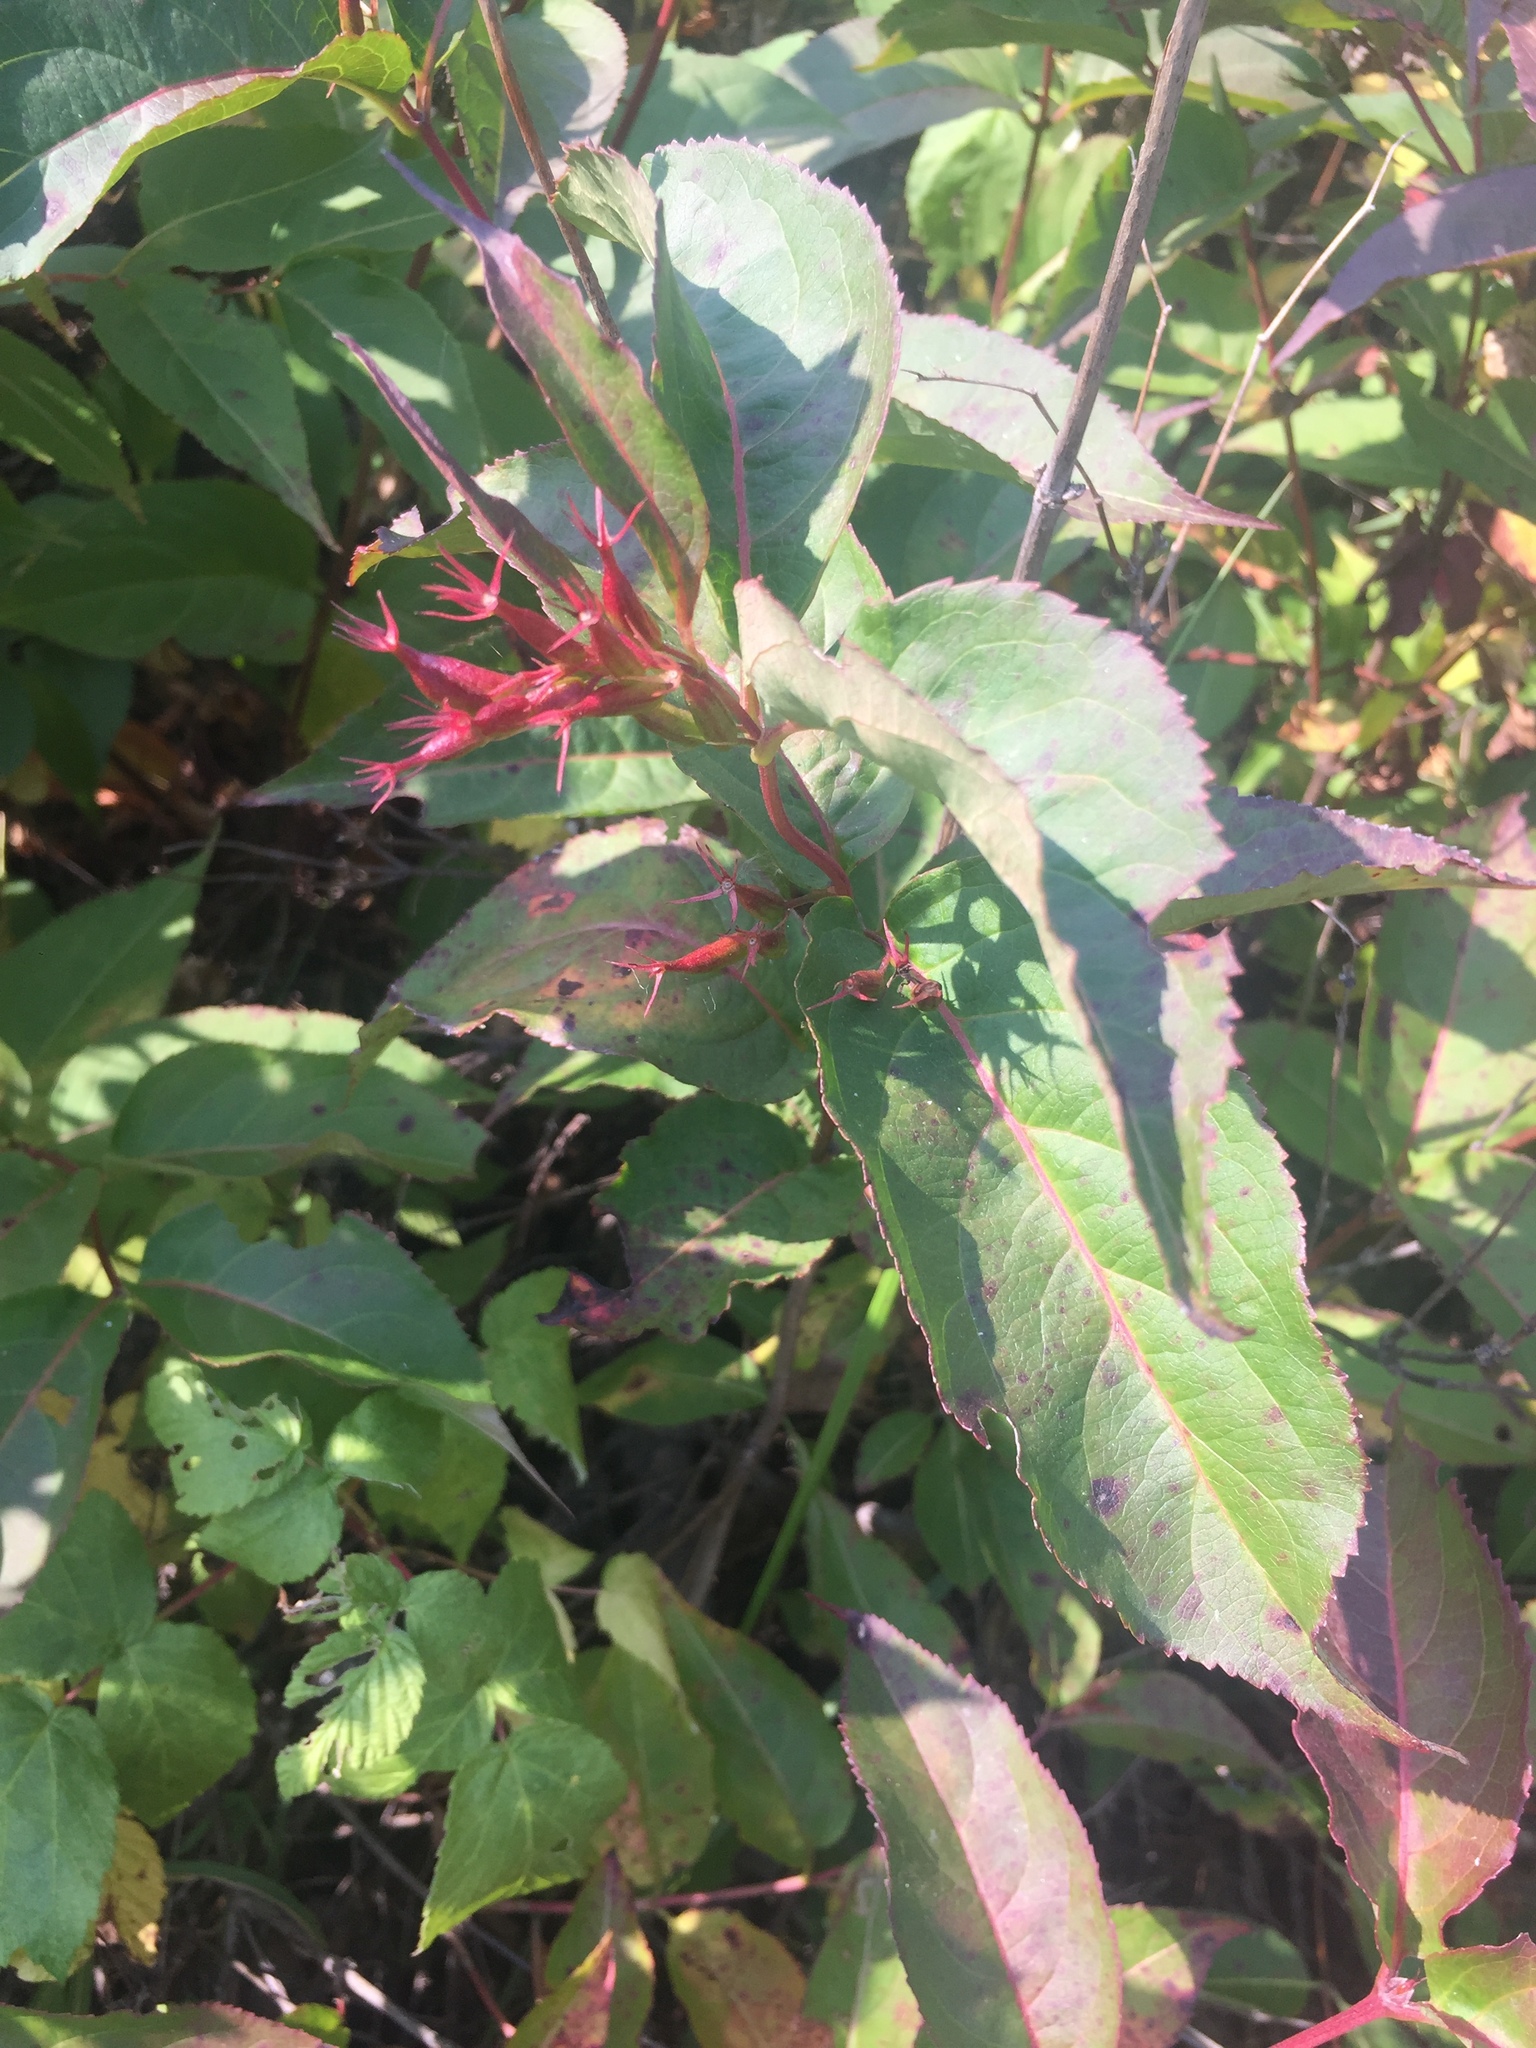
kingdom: Plantae
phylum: Tracheophyta
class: Magnoliopsida
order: Dipsacales
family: Caprifoliaceae
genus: Diervilla
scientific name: Diervilla lonicera
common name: Bush-honeysuckle
